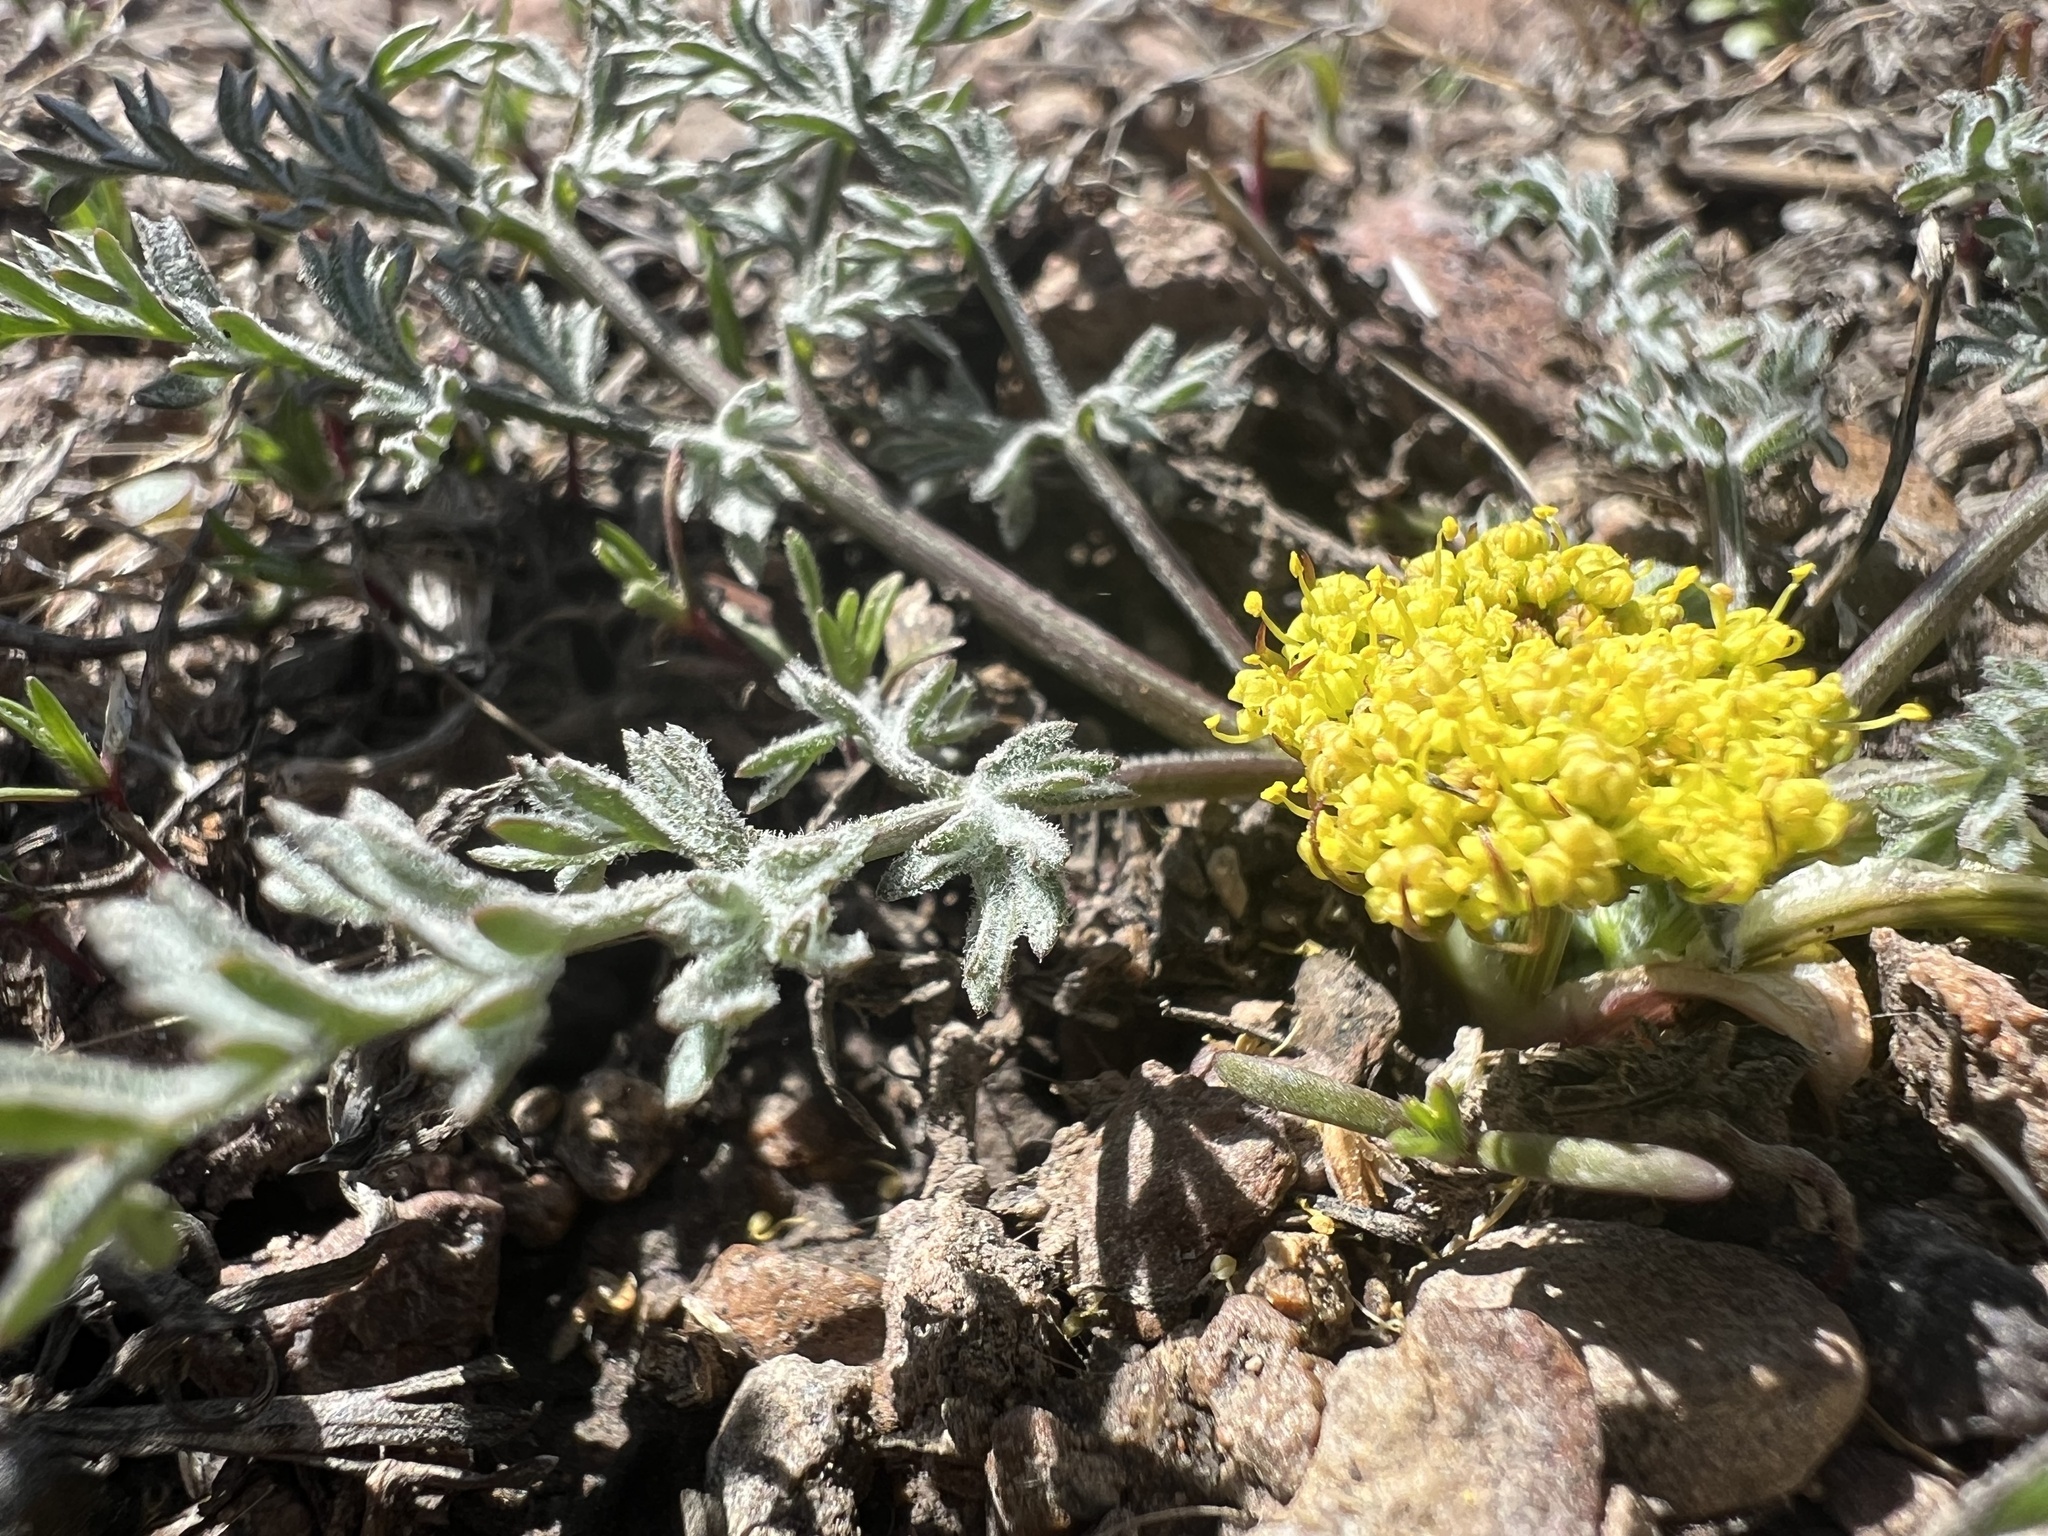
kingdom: Plantae
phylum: Tracheophyta
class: Magnoliopsida
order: Apiales
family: Apiaceae
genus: Lomatium
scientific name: Lomatium austiniae
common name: Plumas lomatium
